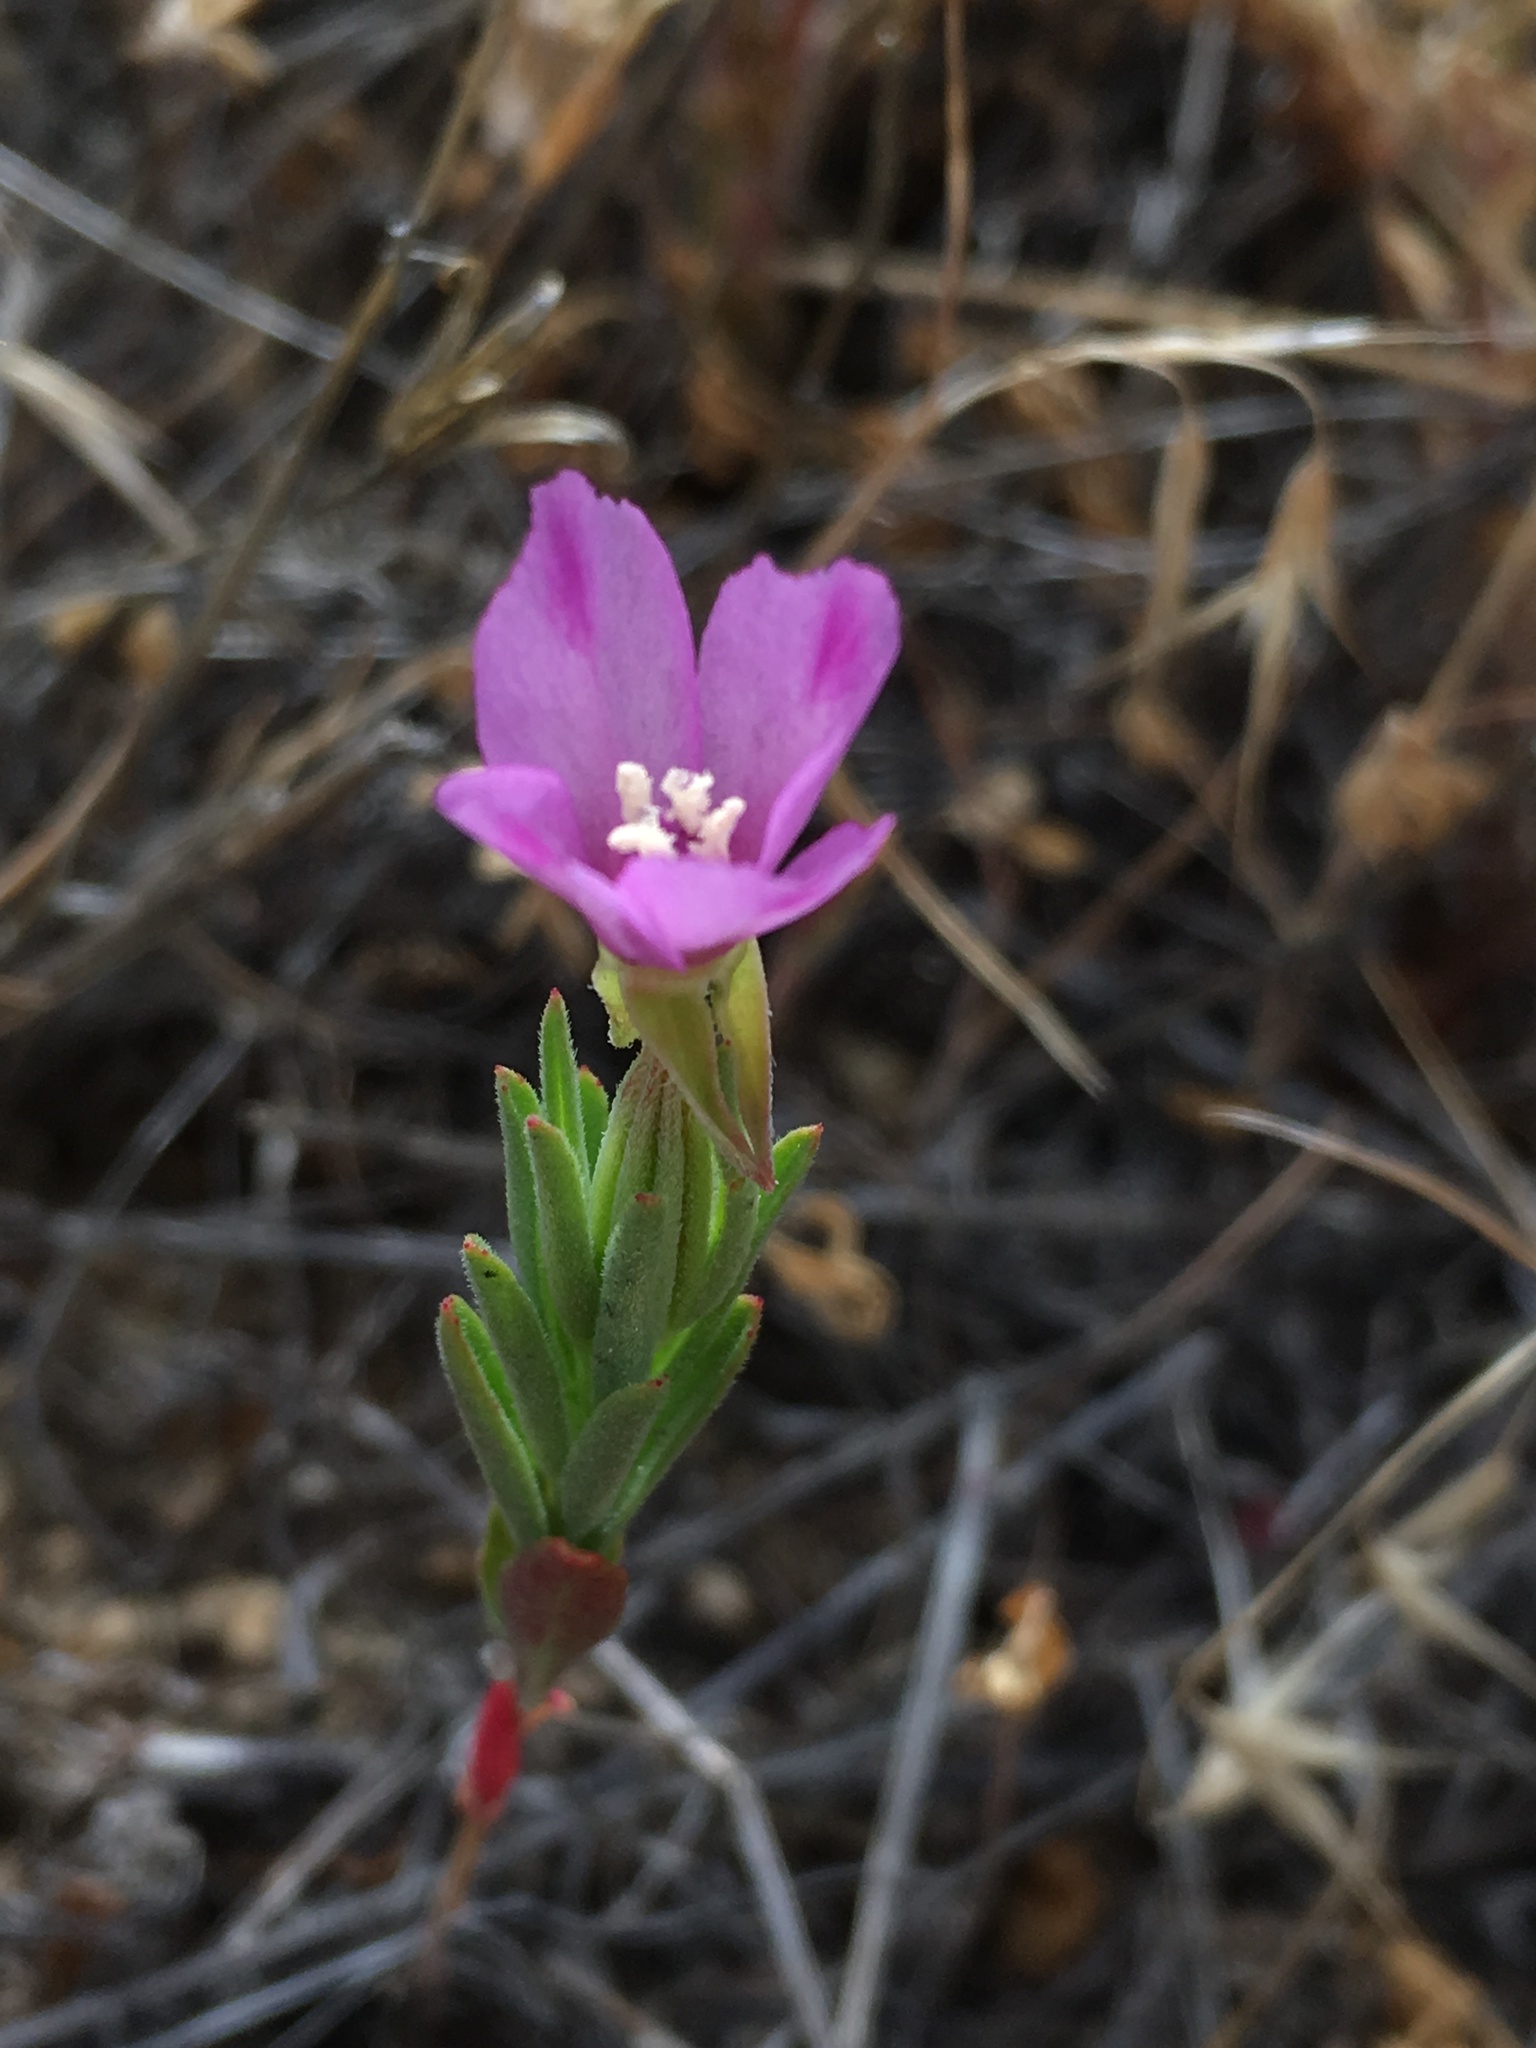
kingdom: Plantae
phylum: Tracheophyta
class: Magnoliopsida
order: Myrtales
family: Onagraceae
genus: Clarkia
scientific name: Clarkia purpurea
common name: Purple clarkia
